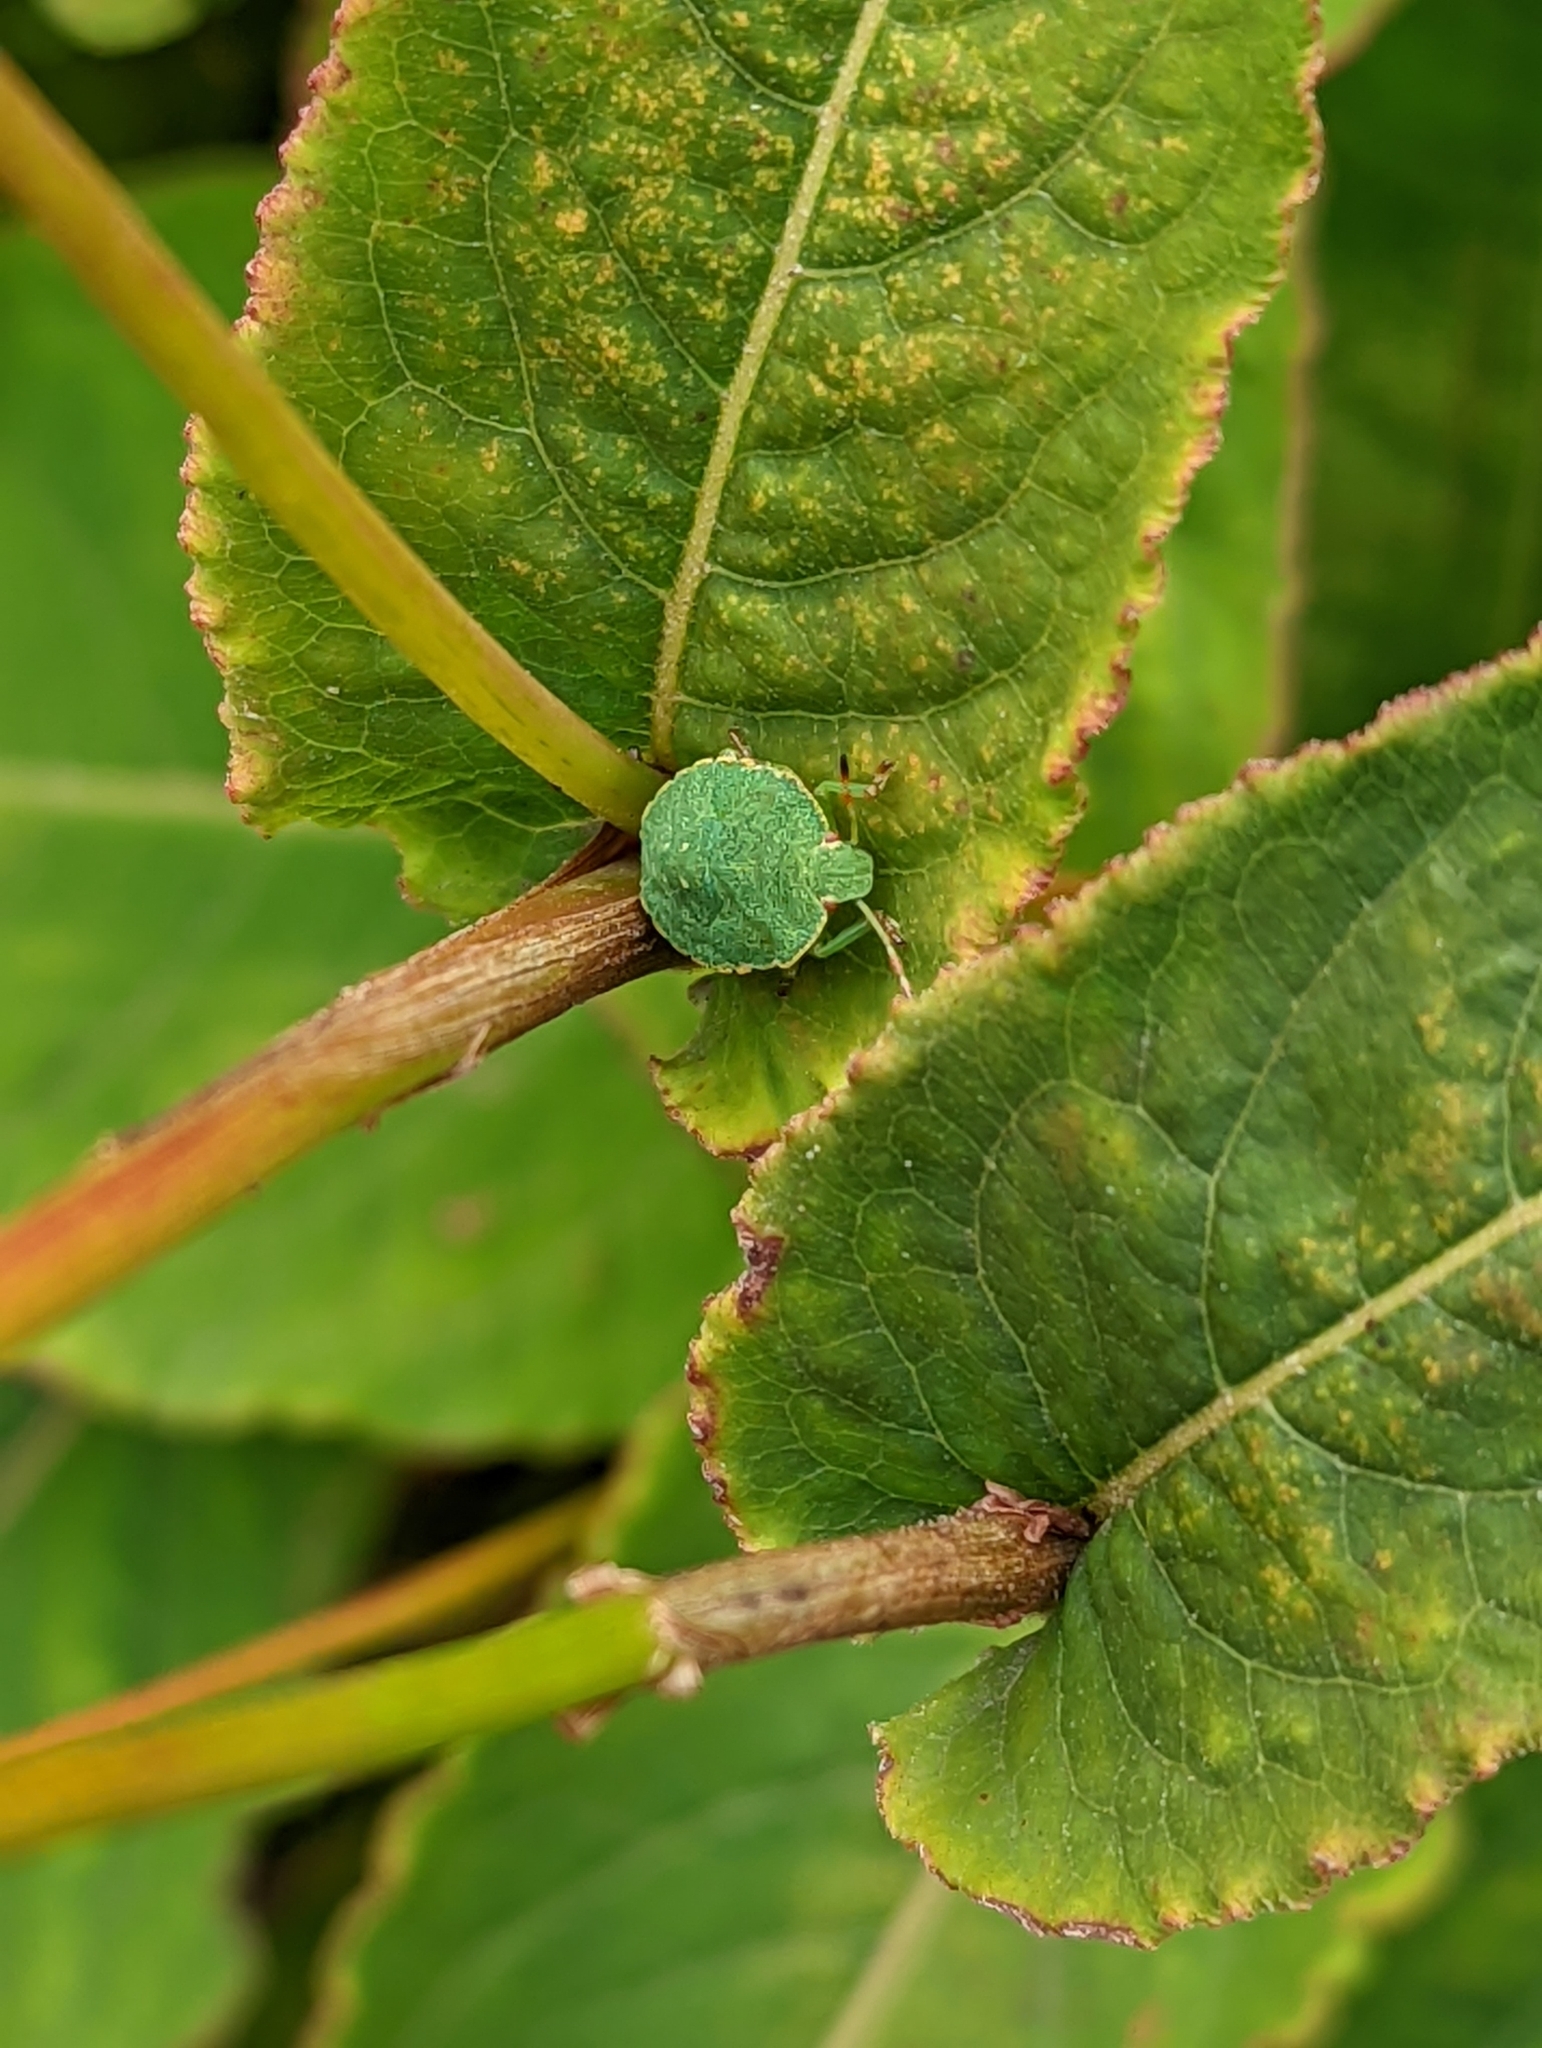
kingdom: Animalia
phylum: Arthropoda
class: Insecta
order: Hemiptera
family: Pentatomidae
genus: Palomena
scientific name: Palomena prasina
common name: Green shieldbug
